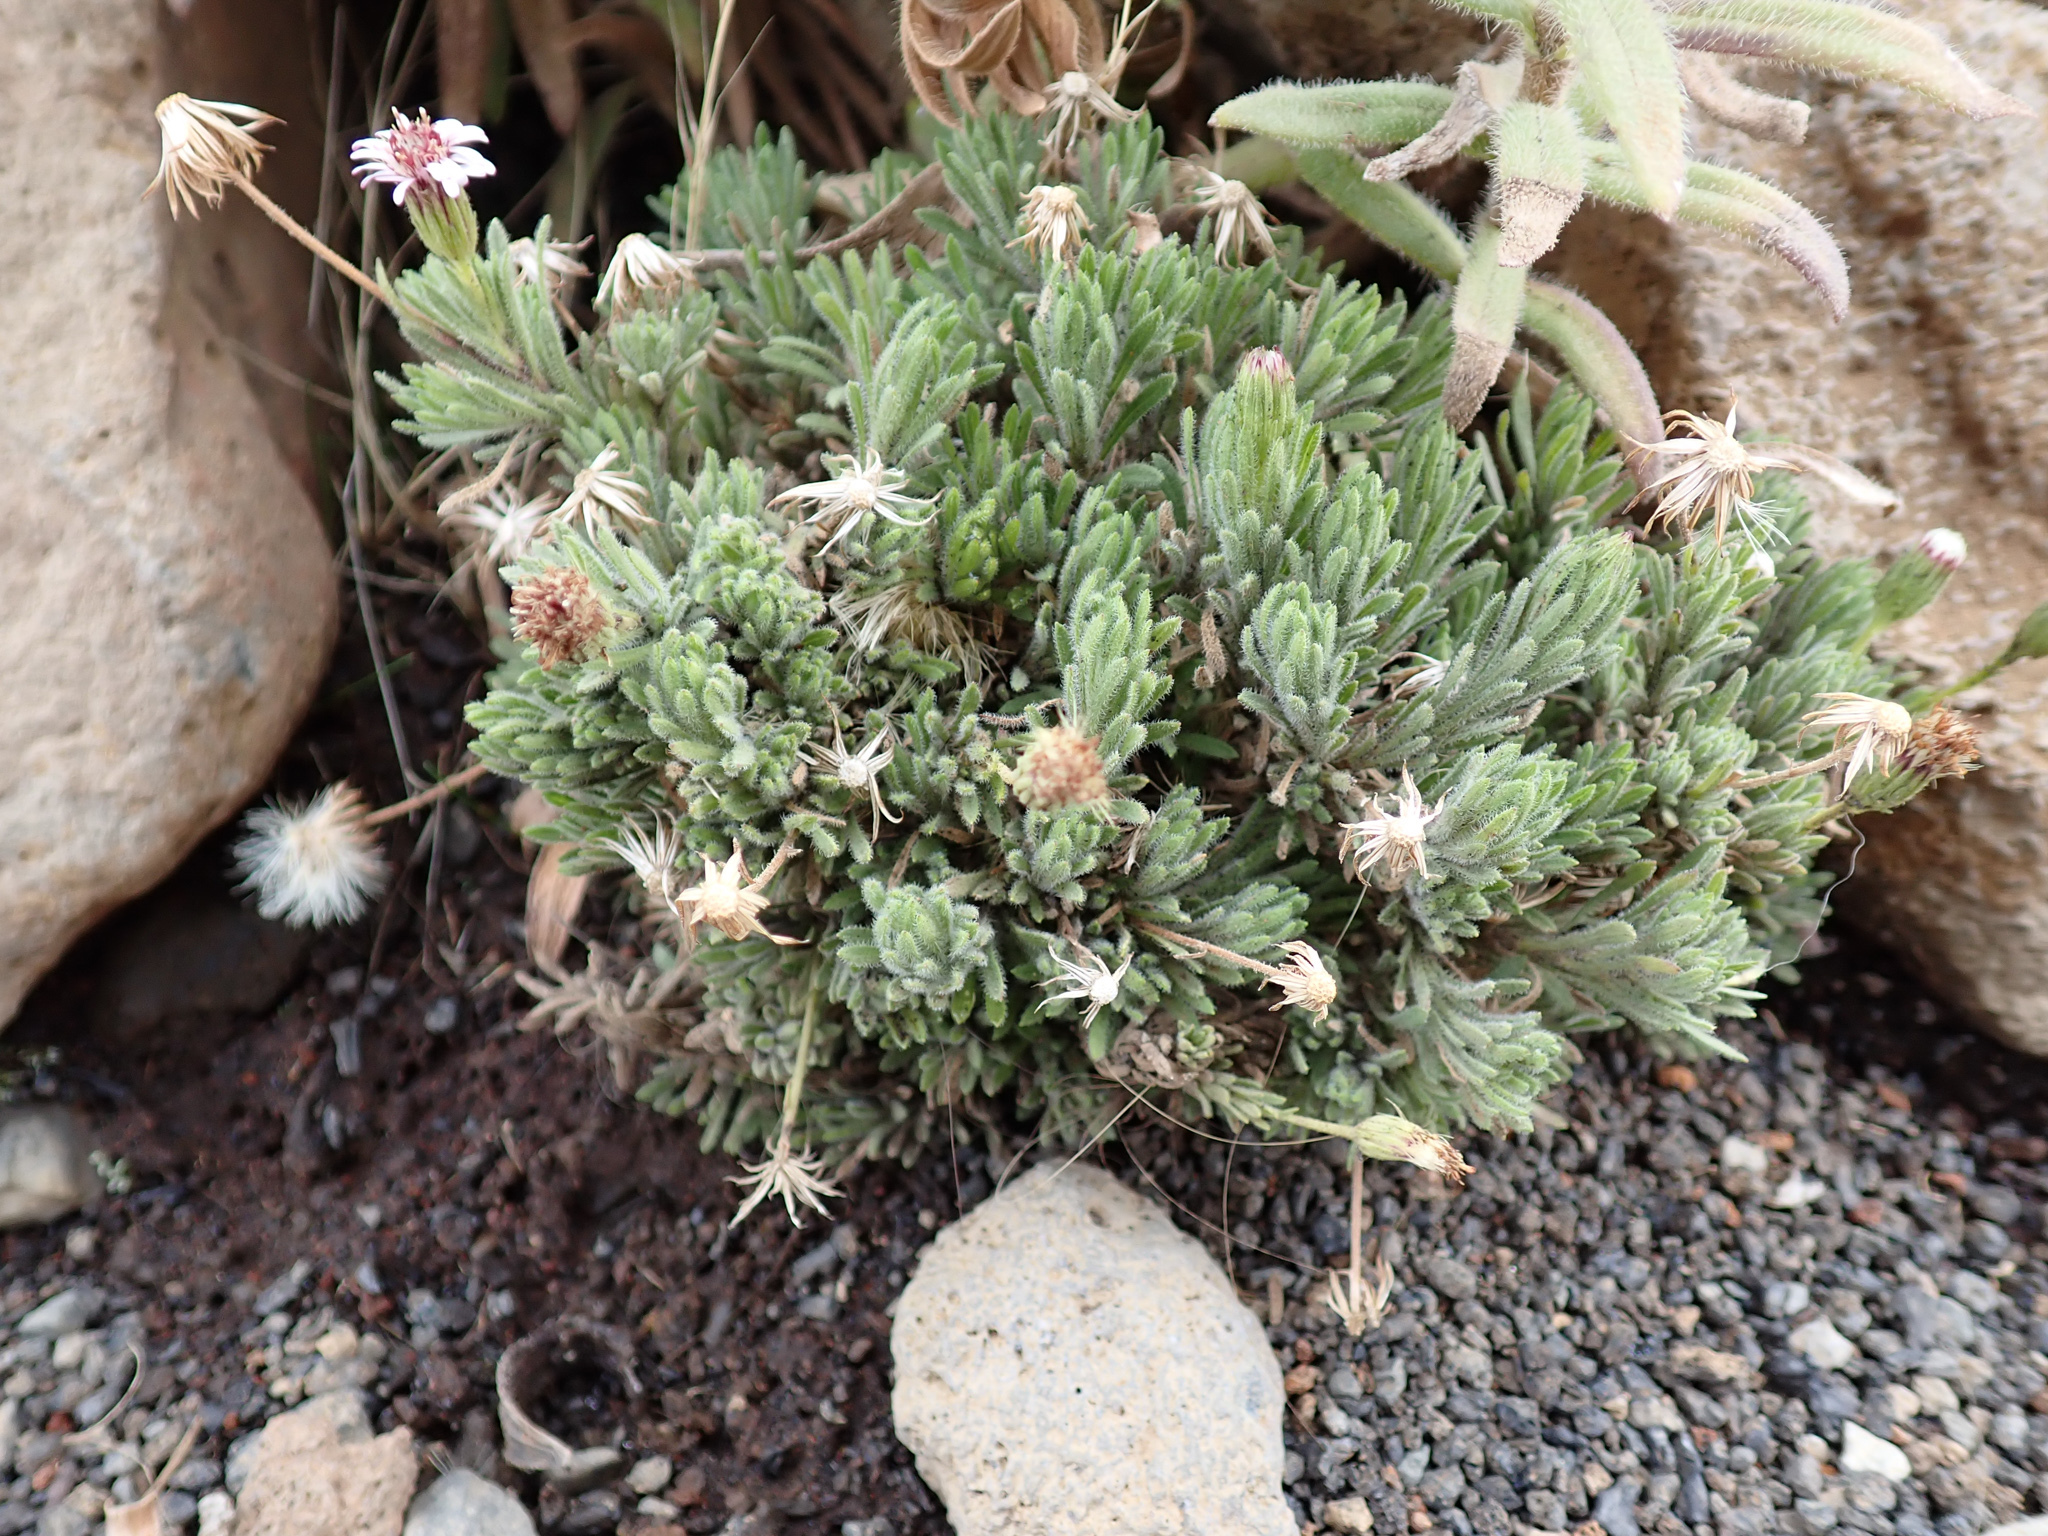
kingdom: Plantae
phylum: Tracheophyta
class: Magnoliopsida
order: Asterales
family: Asteraceae
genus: Tetramolopium
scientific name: Tetramolopium humile
